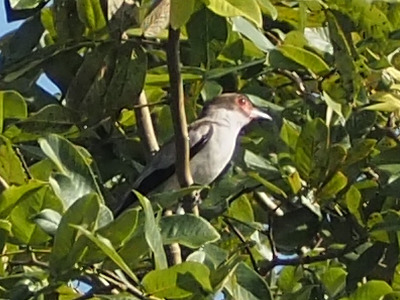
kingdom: Animalia
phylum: Chordata
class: Aves
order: Passeriformes
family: Cotingidae
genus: Tityra
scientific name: Tityra semifasciata
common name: Masked tityra
